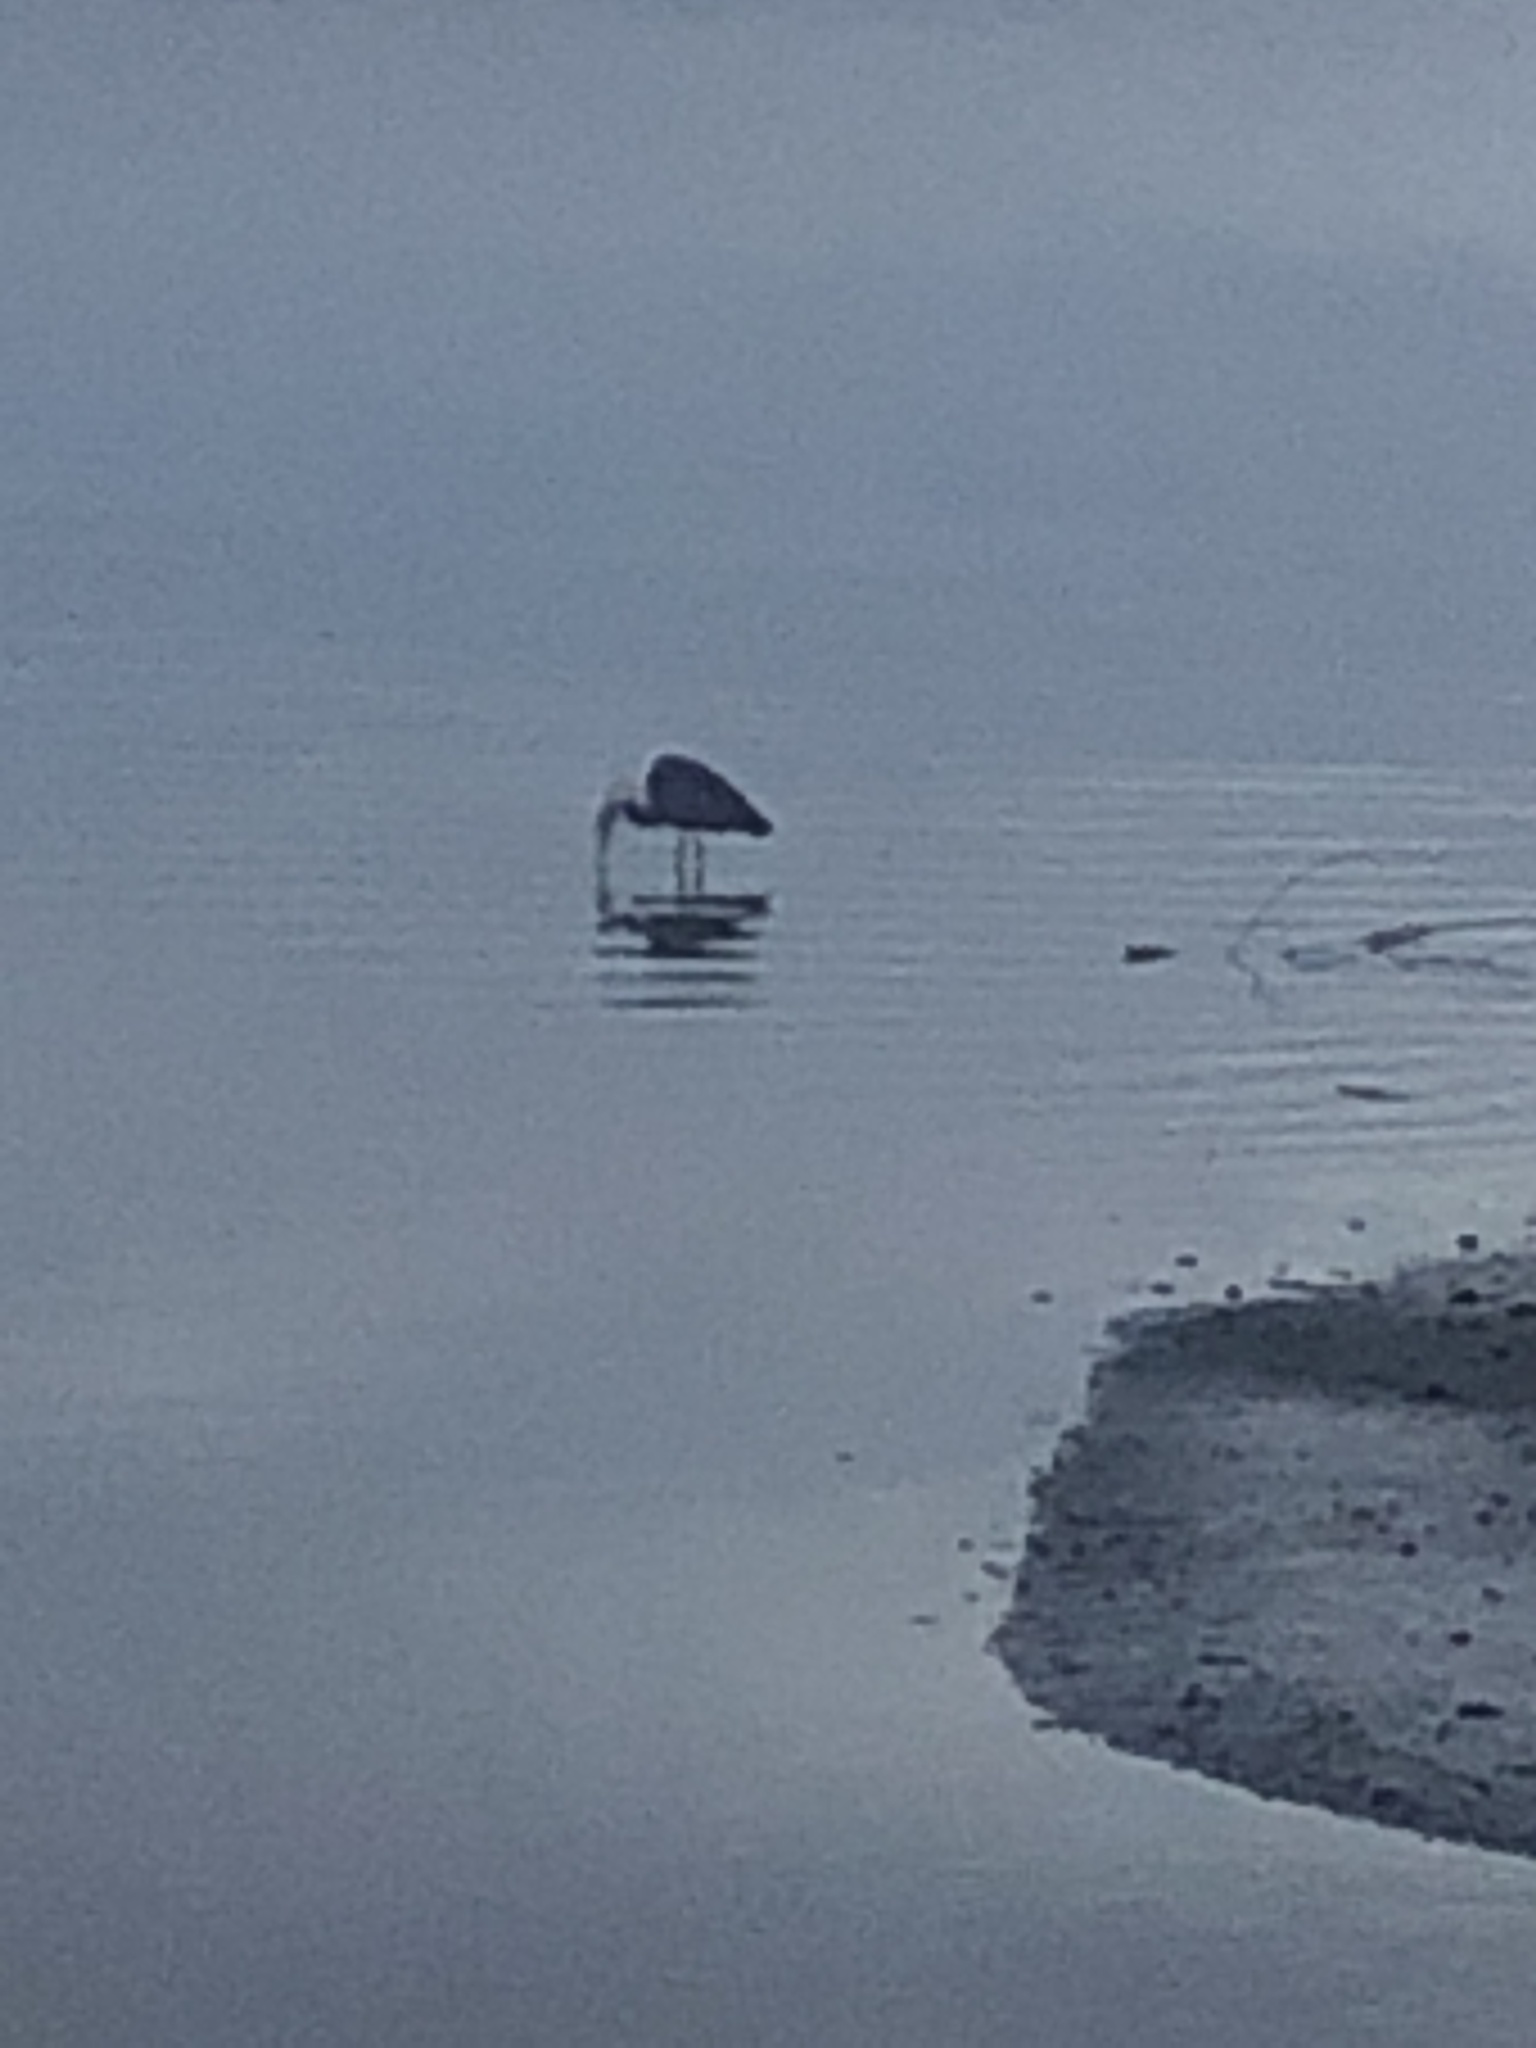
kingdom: Animalia
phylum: Chordata
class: Aves
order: Pelecaniformes
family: Ardeidae
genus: Ardea
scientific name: Ardea herodias
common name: Great blue heron
